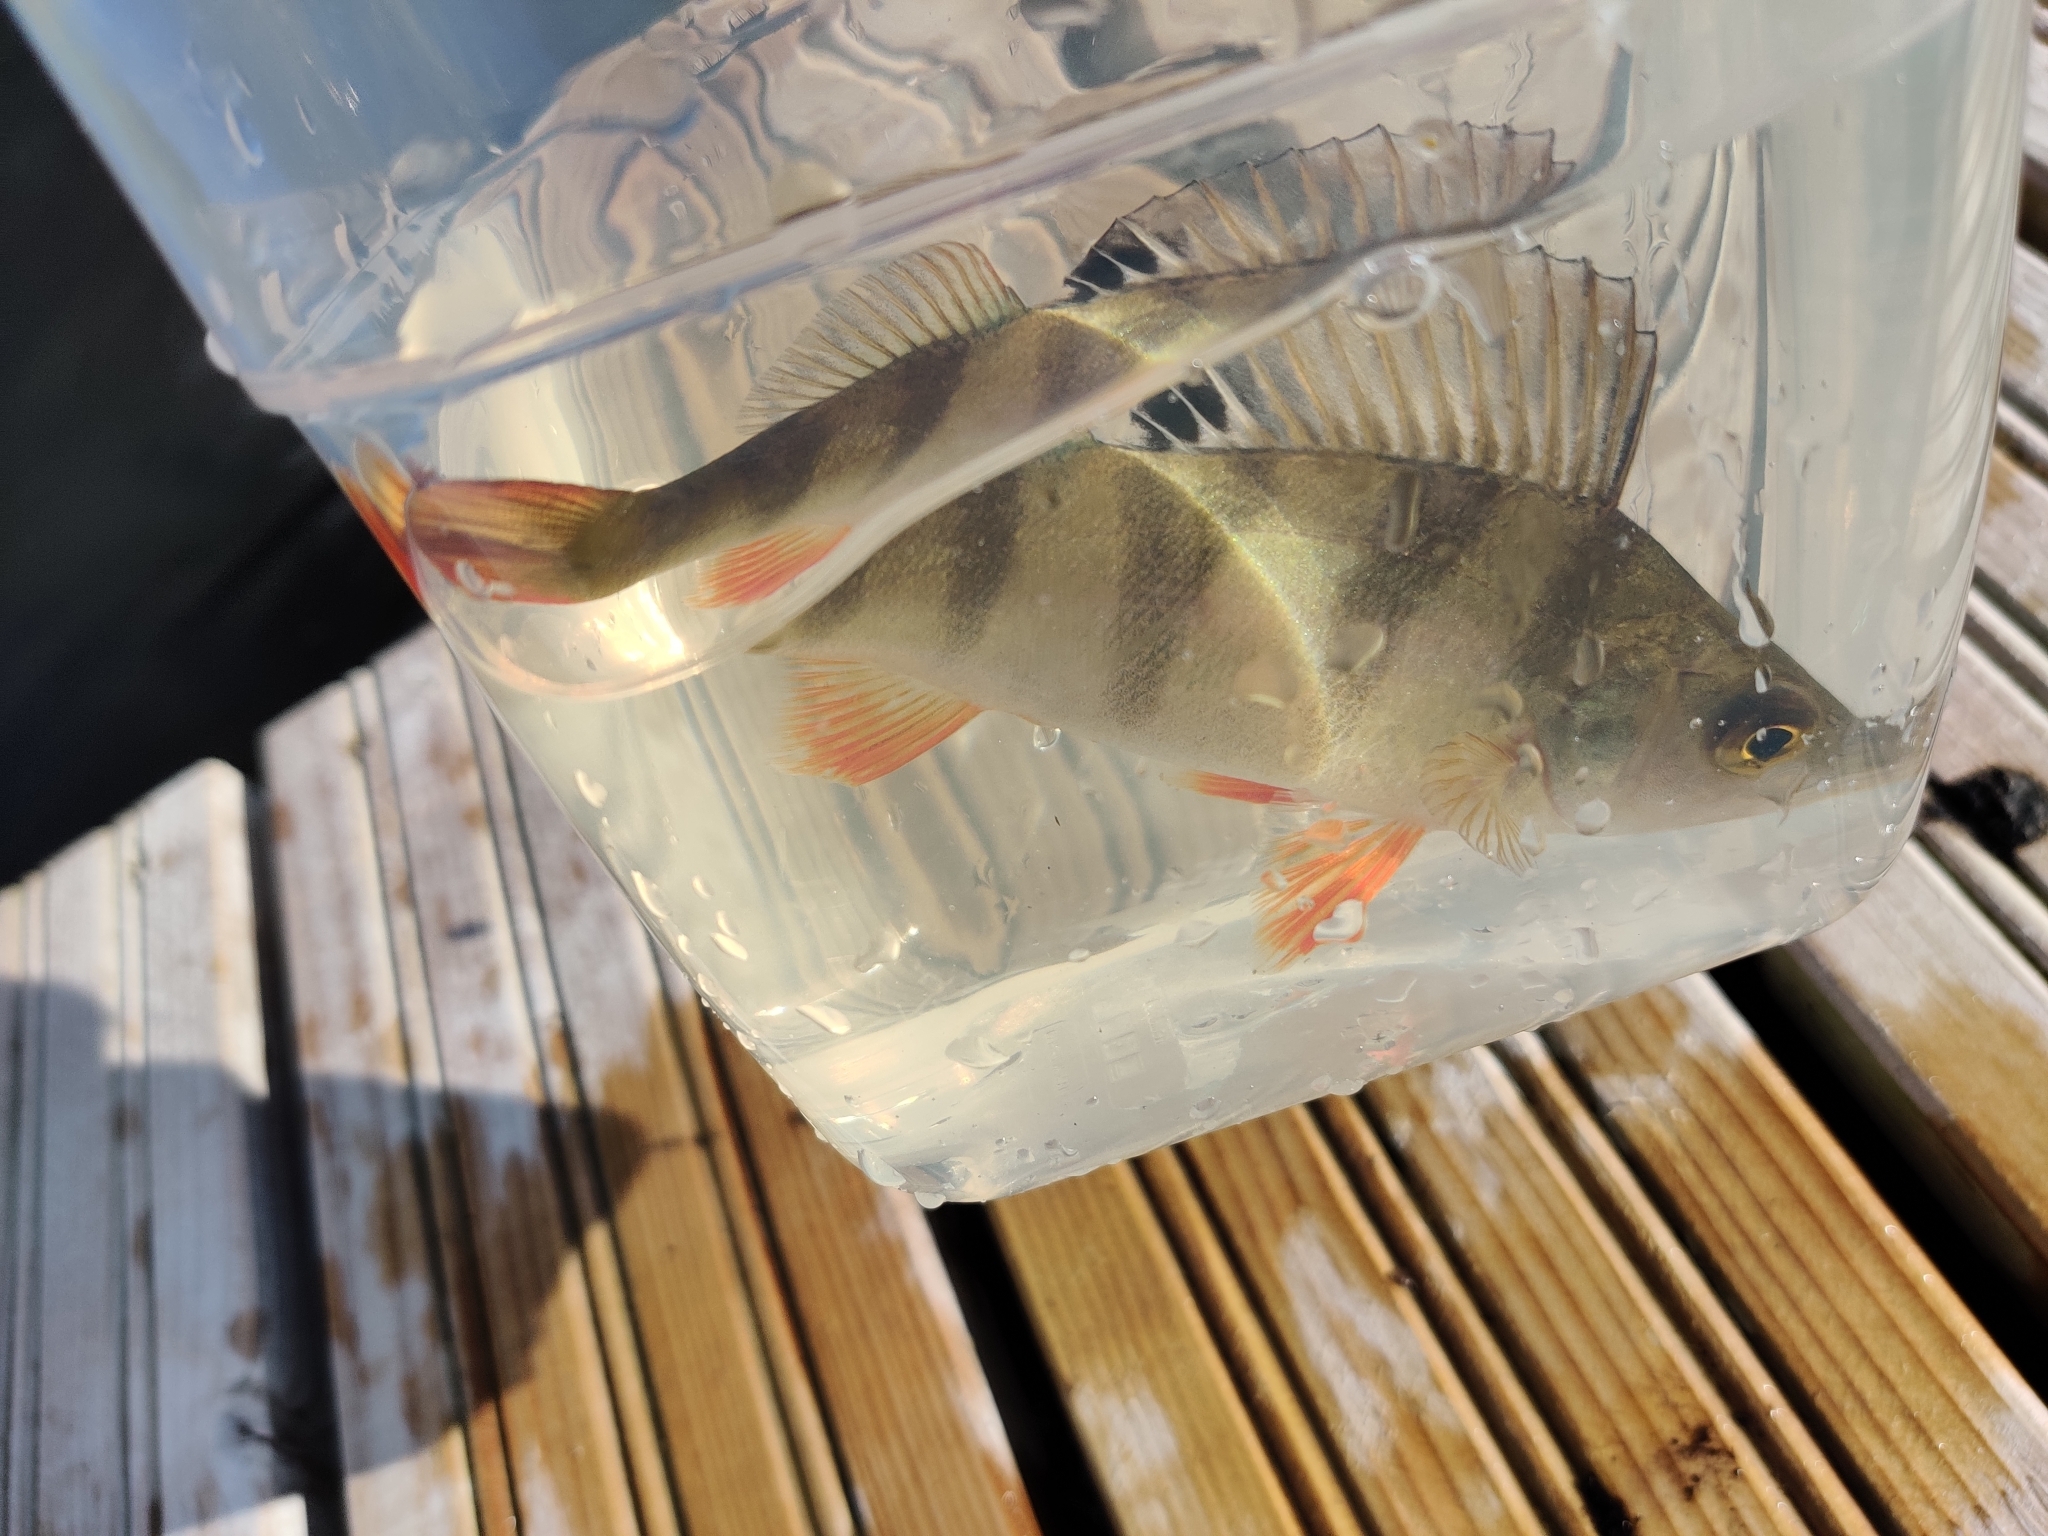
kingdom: Animalia
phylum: Chordata
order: Perciformes
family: Percidae
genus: Perca
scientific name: Perca fluviatilis
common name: Perch
